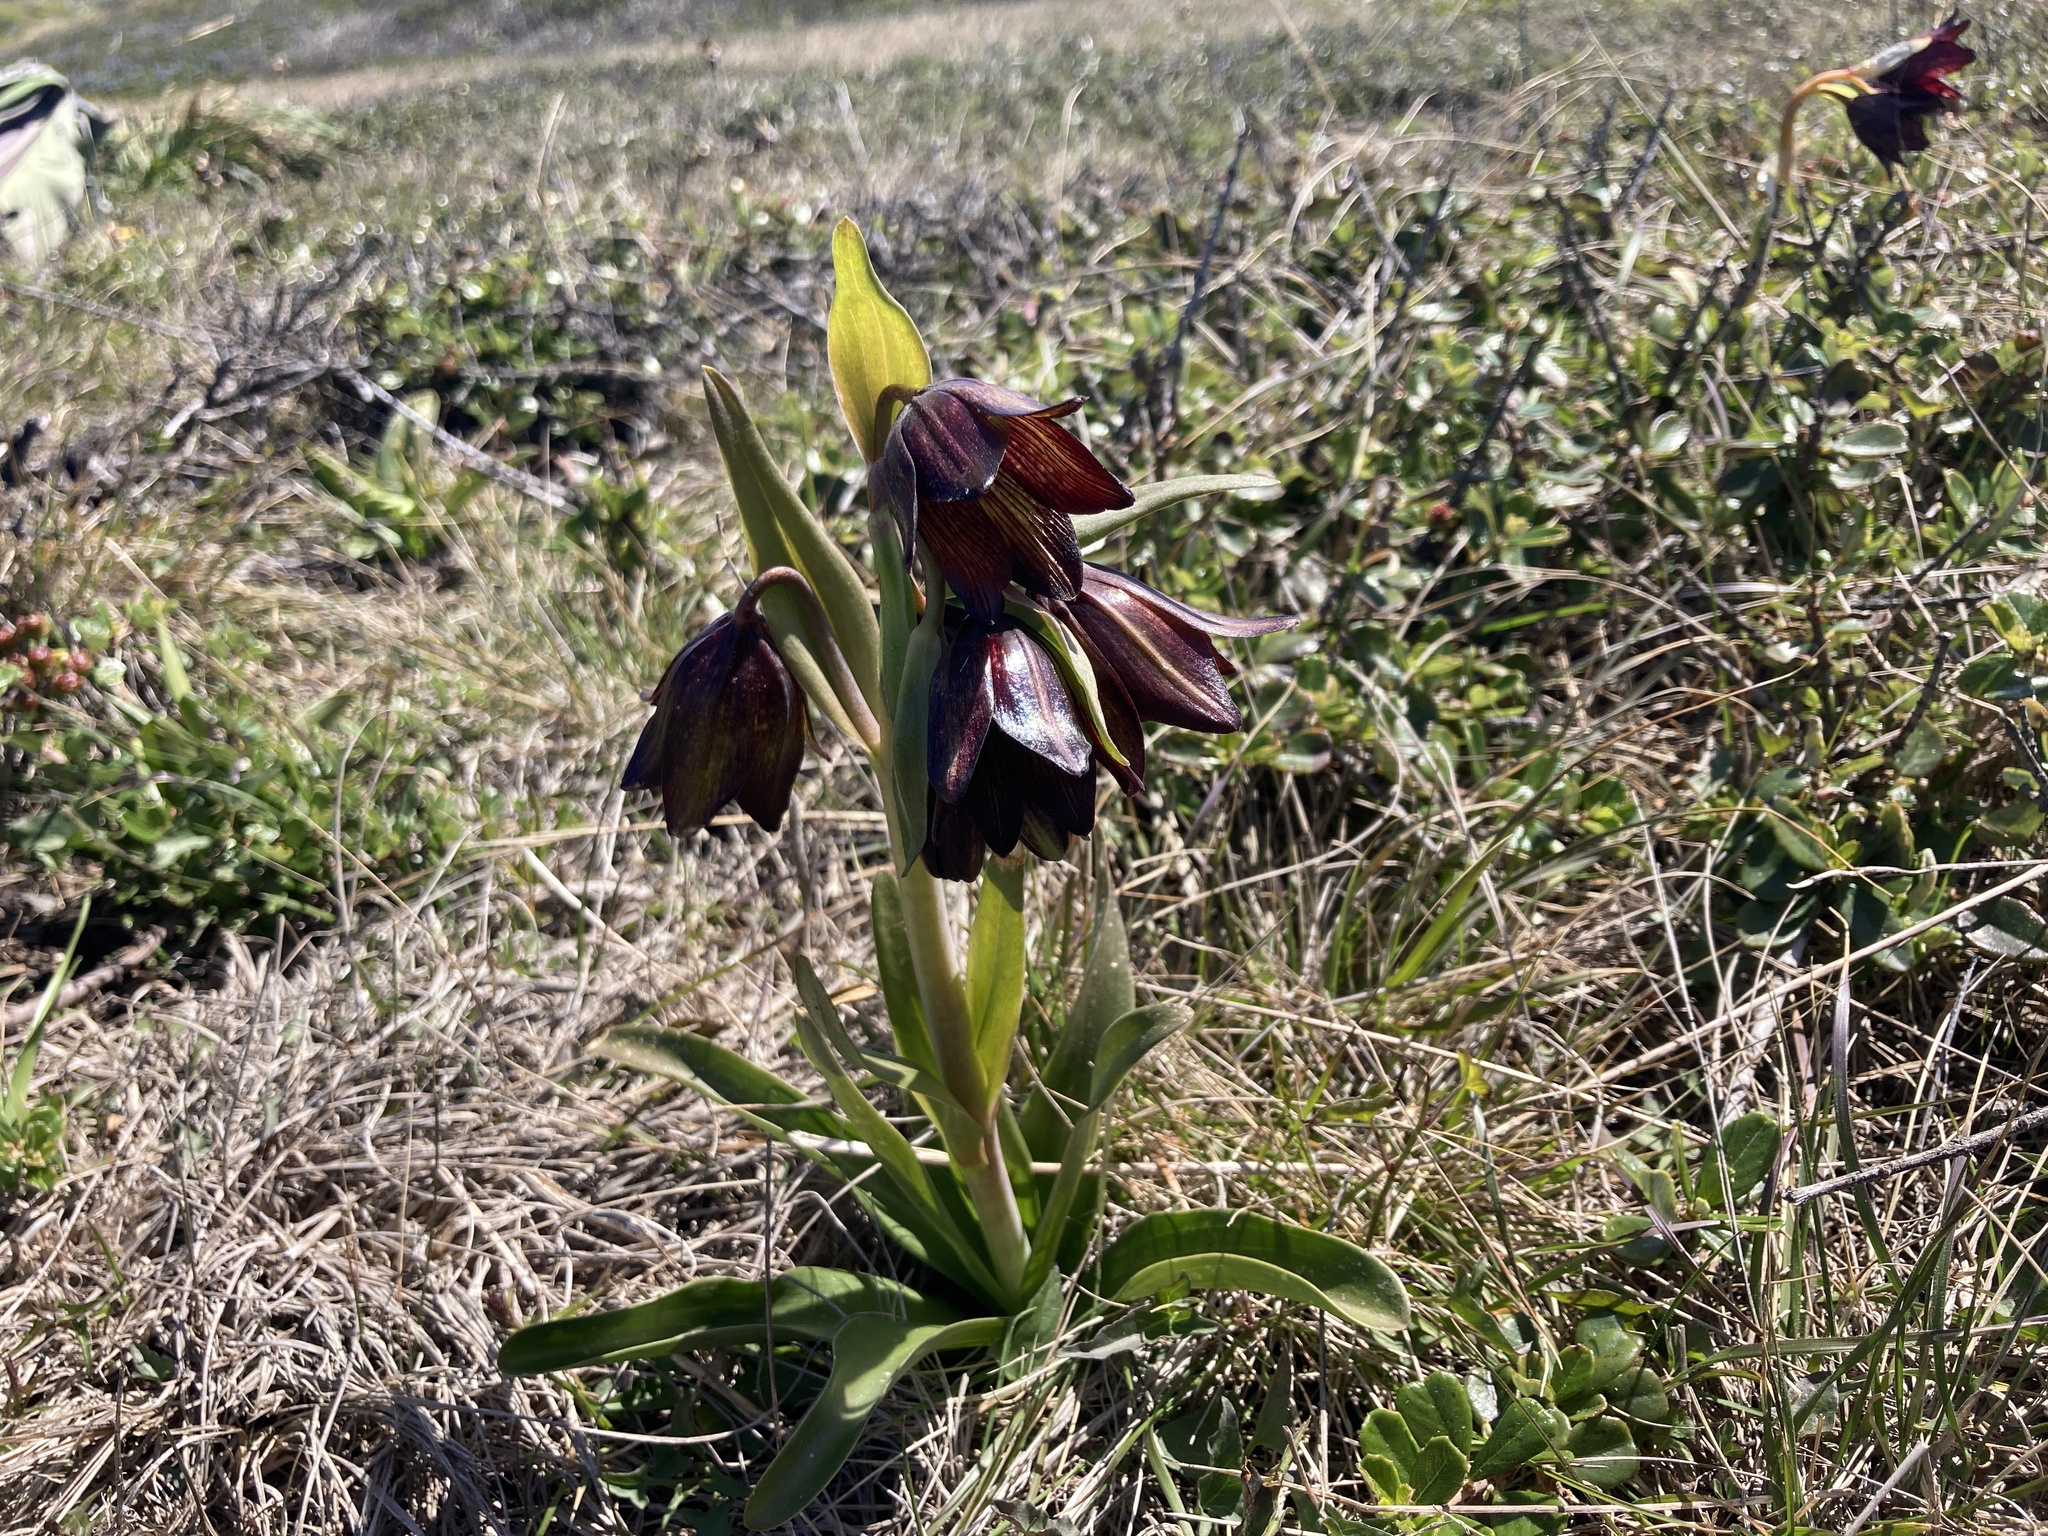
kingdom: Plantae
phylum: Tracheophyta
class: Liliopsida
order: Liliales
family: Liliaceae
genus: Fritillaria
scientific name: Fritillaria biflora
